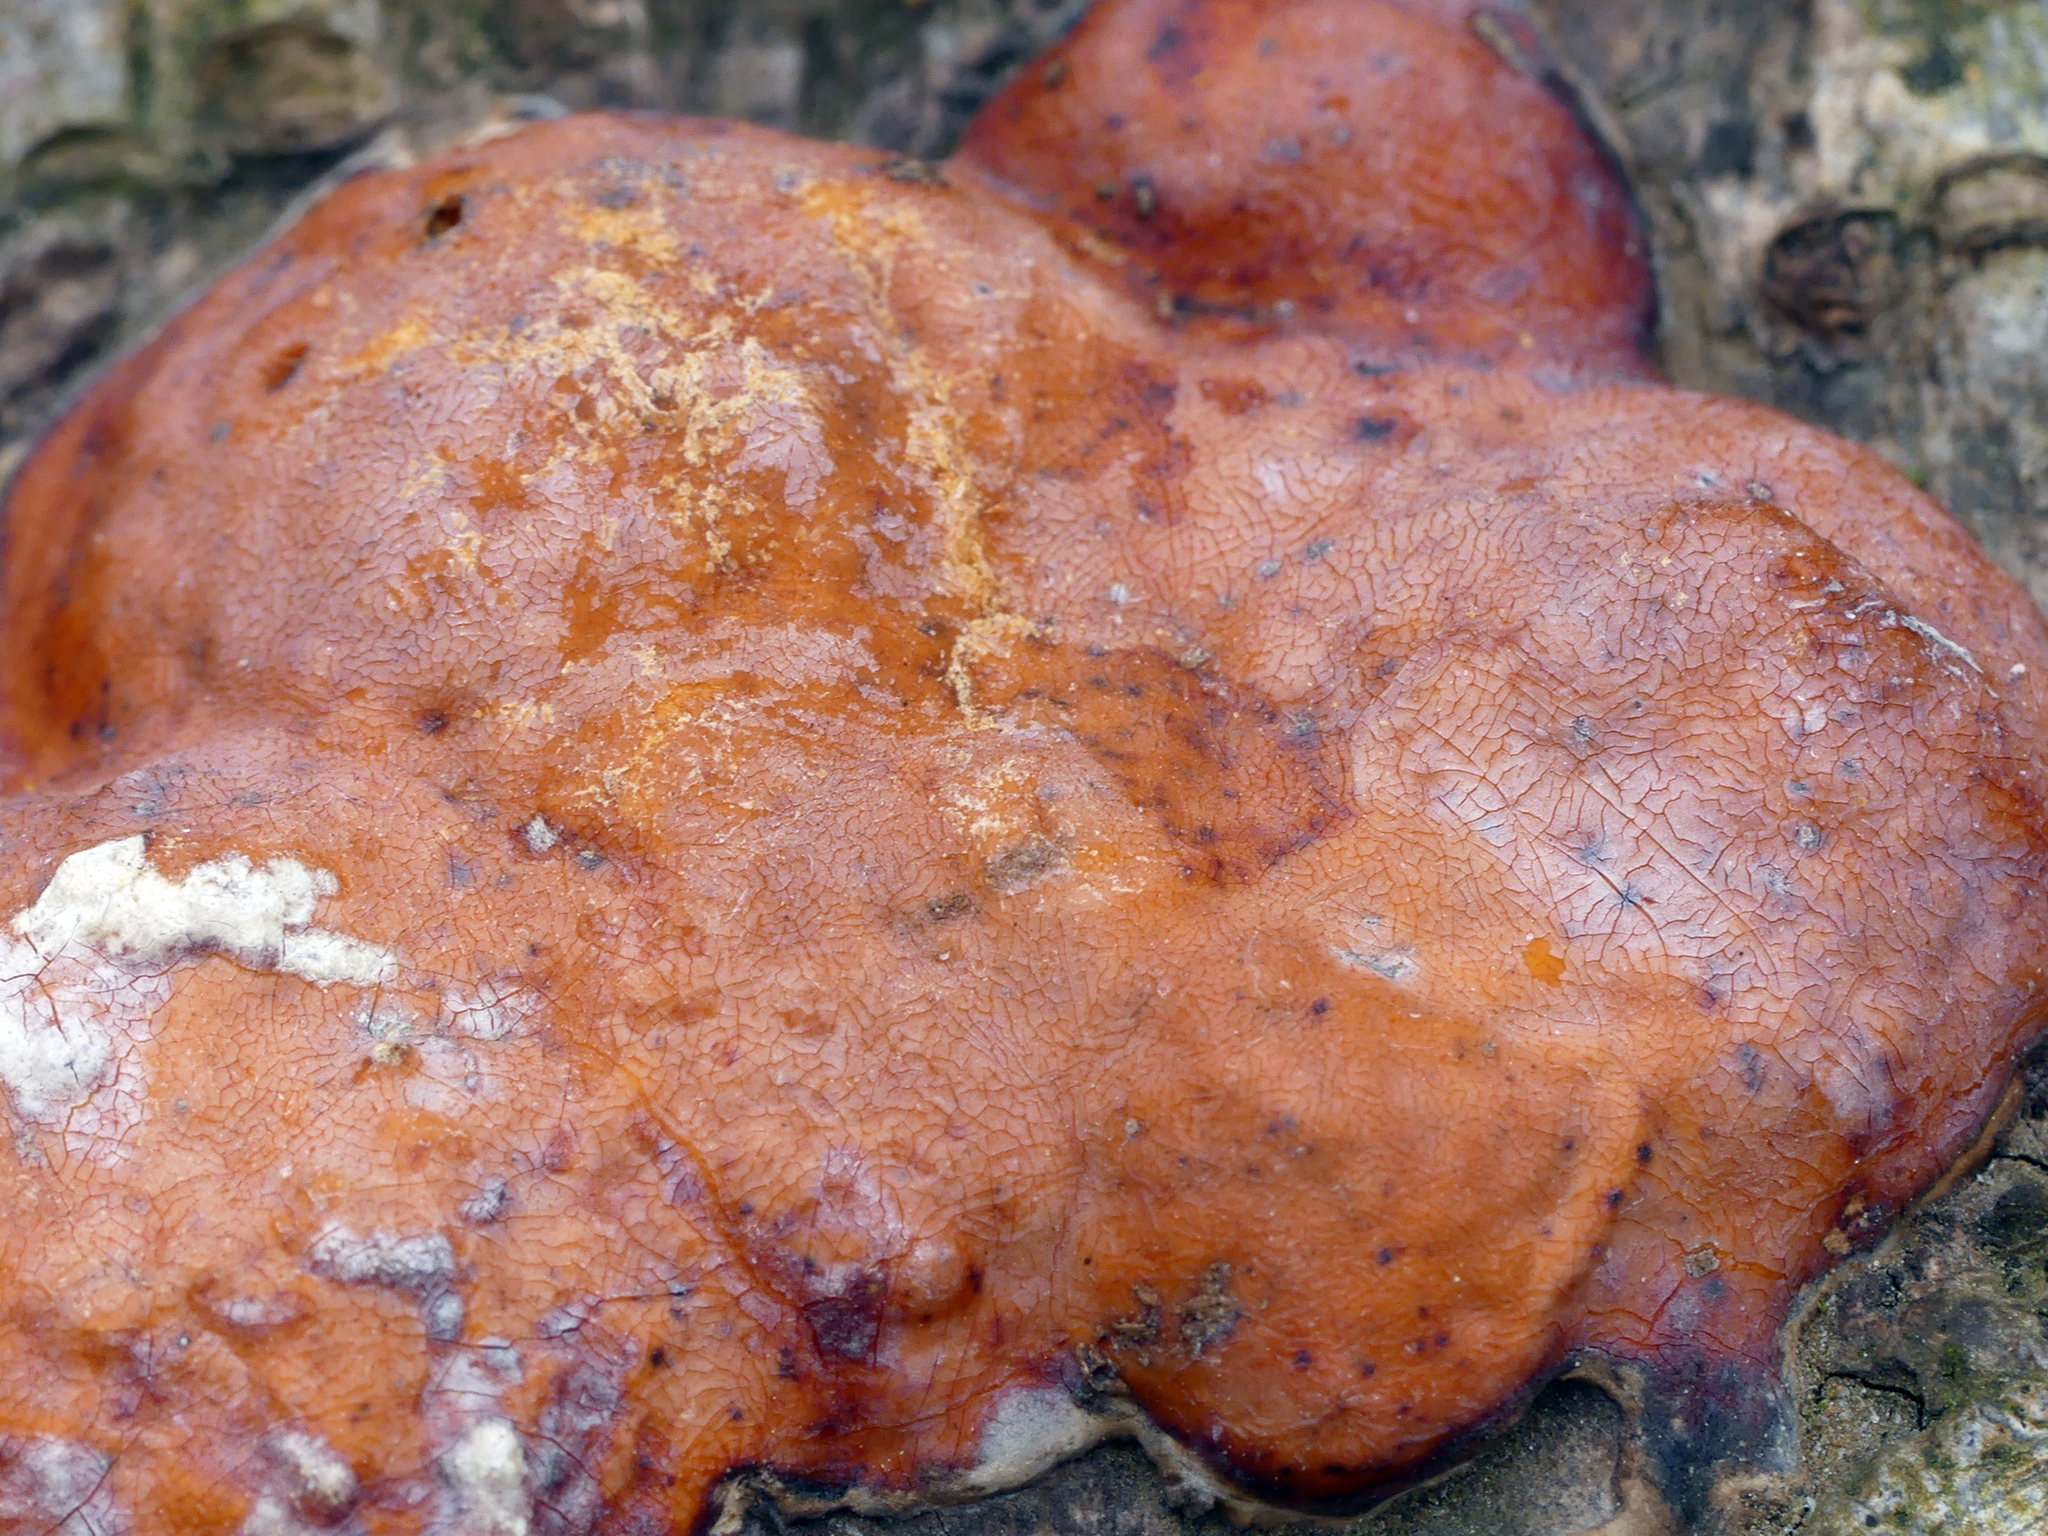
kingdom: Fungi
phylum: Basidiomycota
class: Agaricomycetes
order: Polyporales
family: Fomitopsidaceae
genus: Fomitopsis
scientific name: Fomitopsis pinicola
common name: Red-belted bracket
